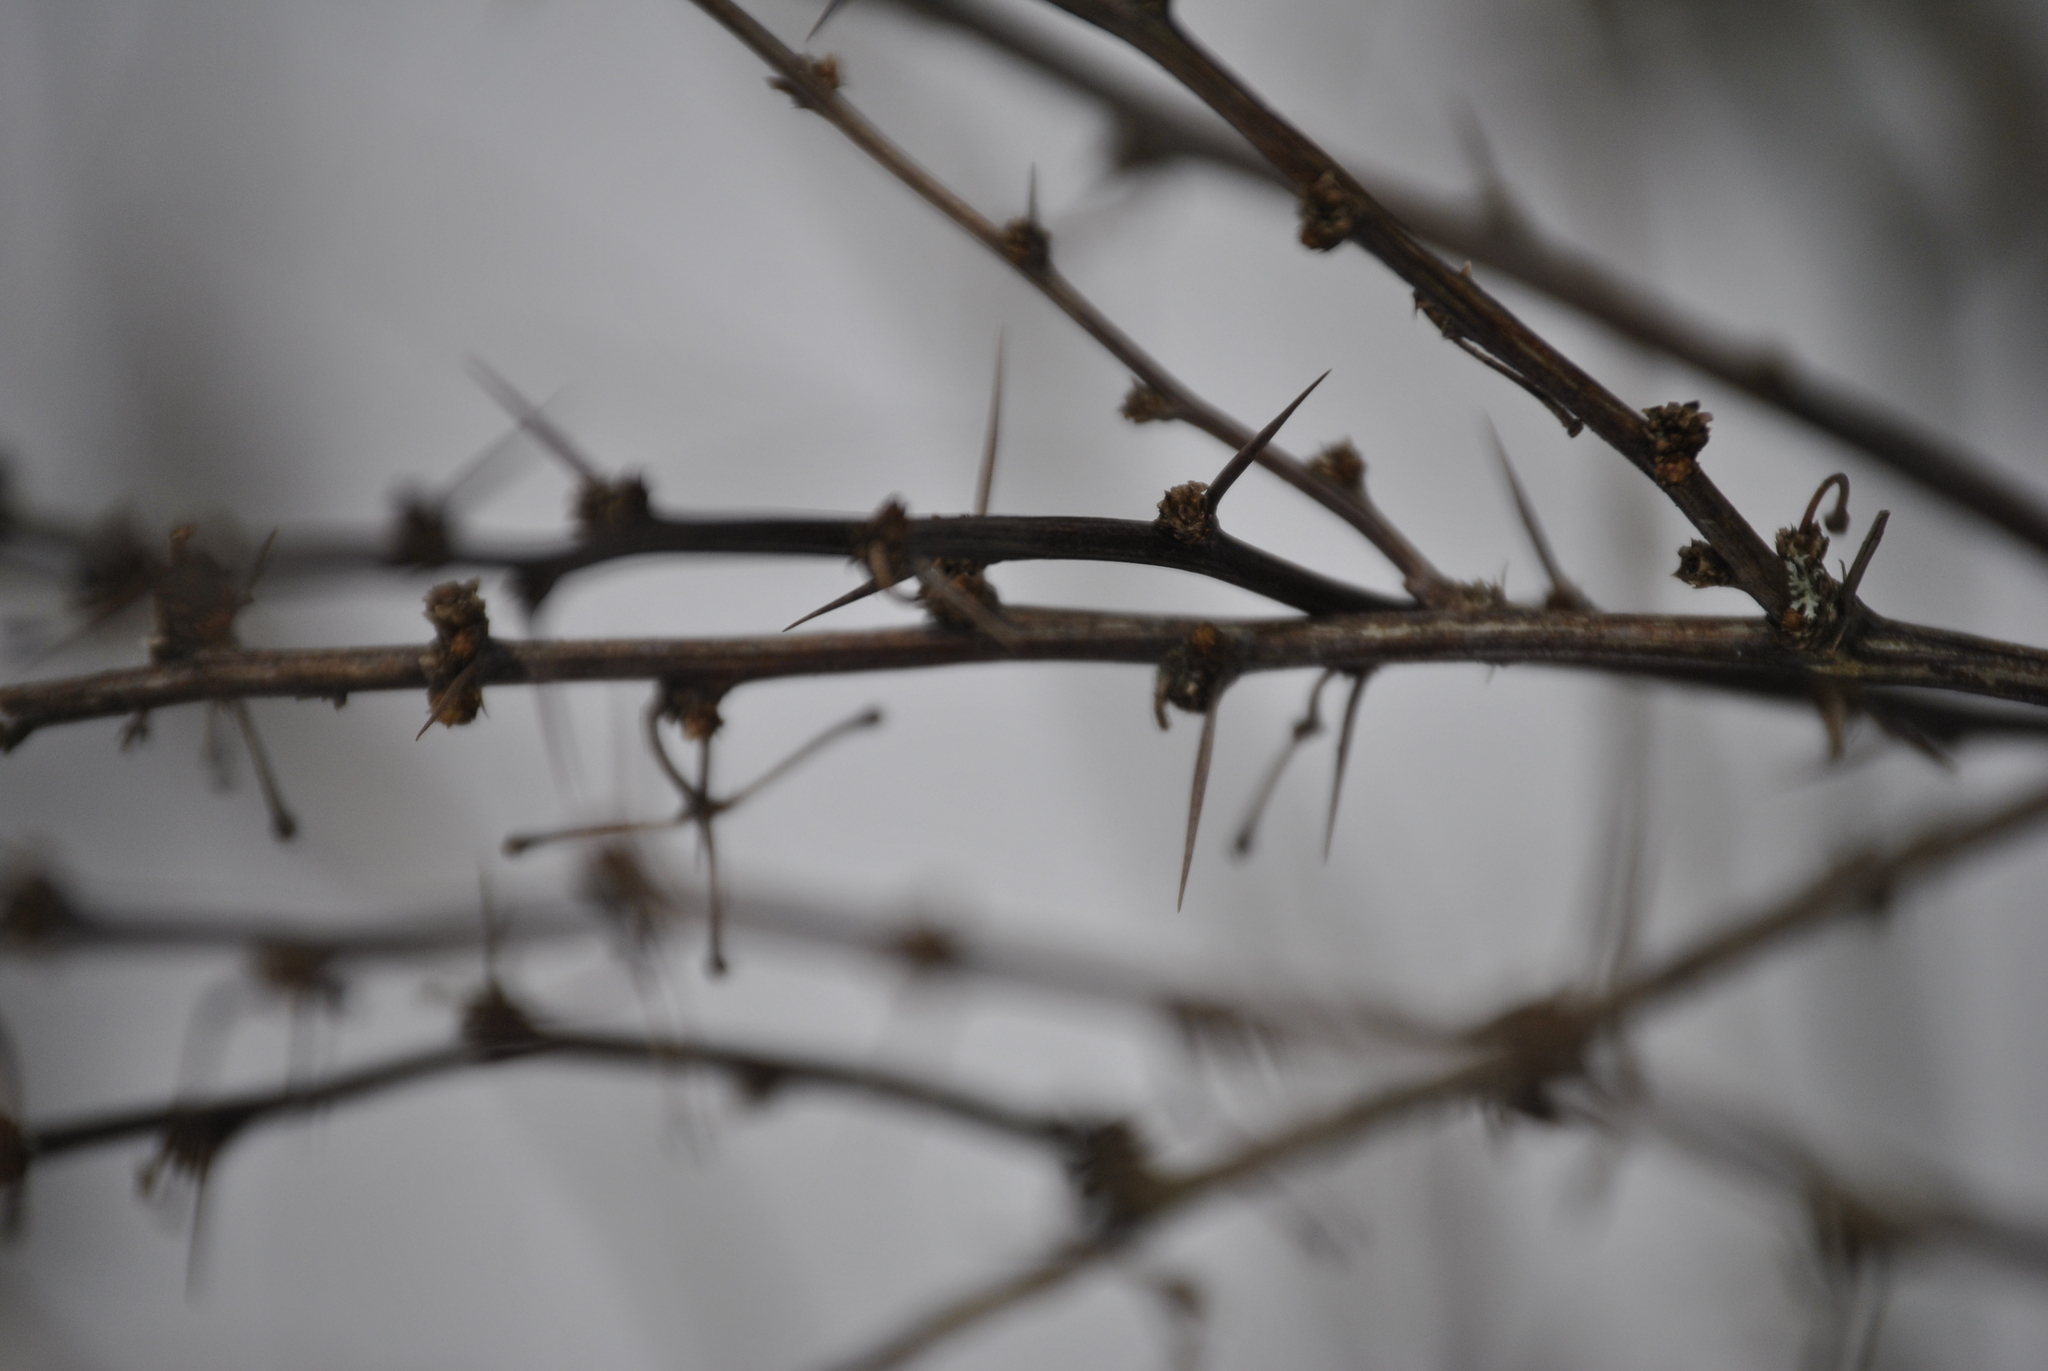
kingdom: Plantae
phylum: Tracheophyta
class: Magnoliopsida
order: Ranunculales
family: Berberidaceae
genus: Berberis
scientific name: Berberis thunbergii
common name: Japanese barberry
